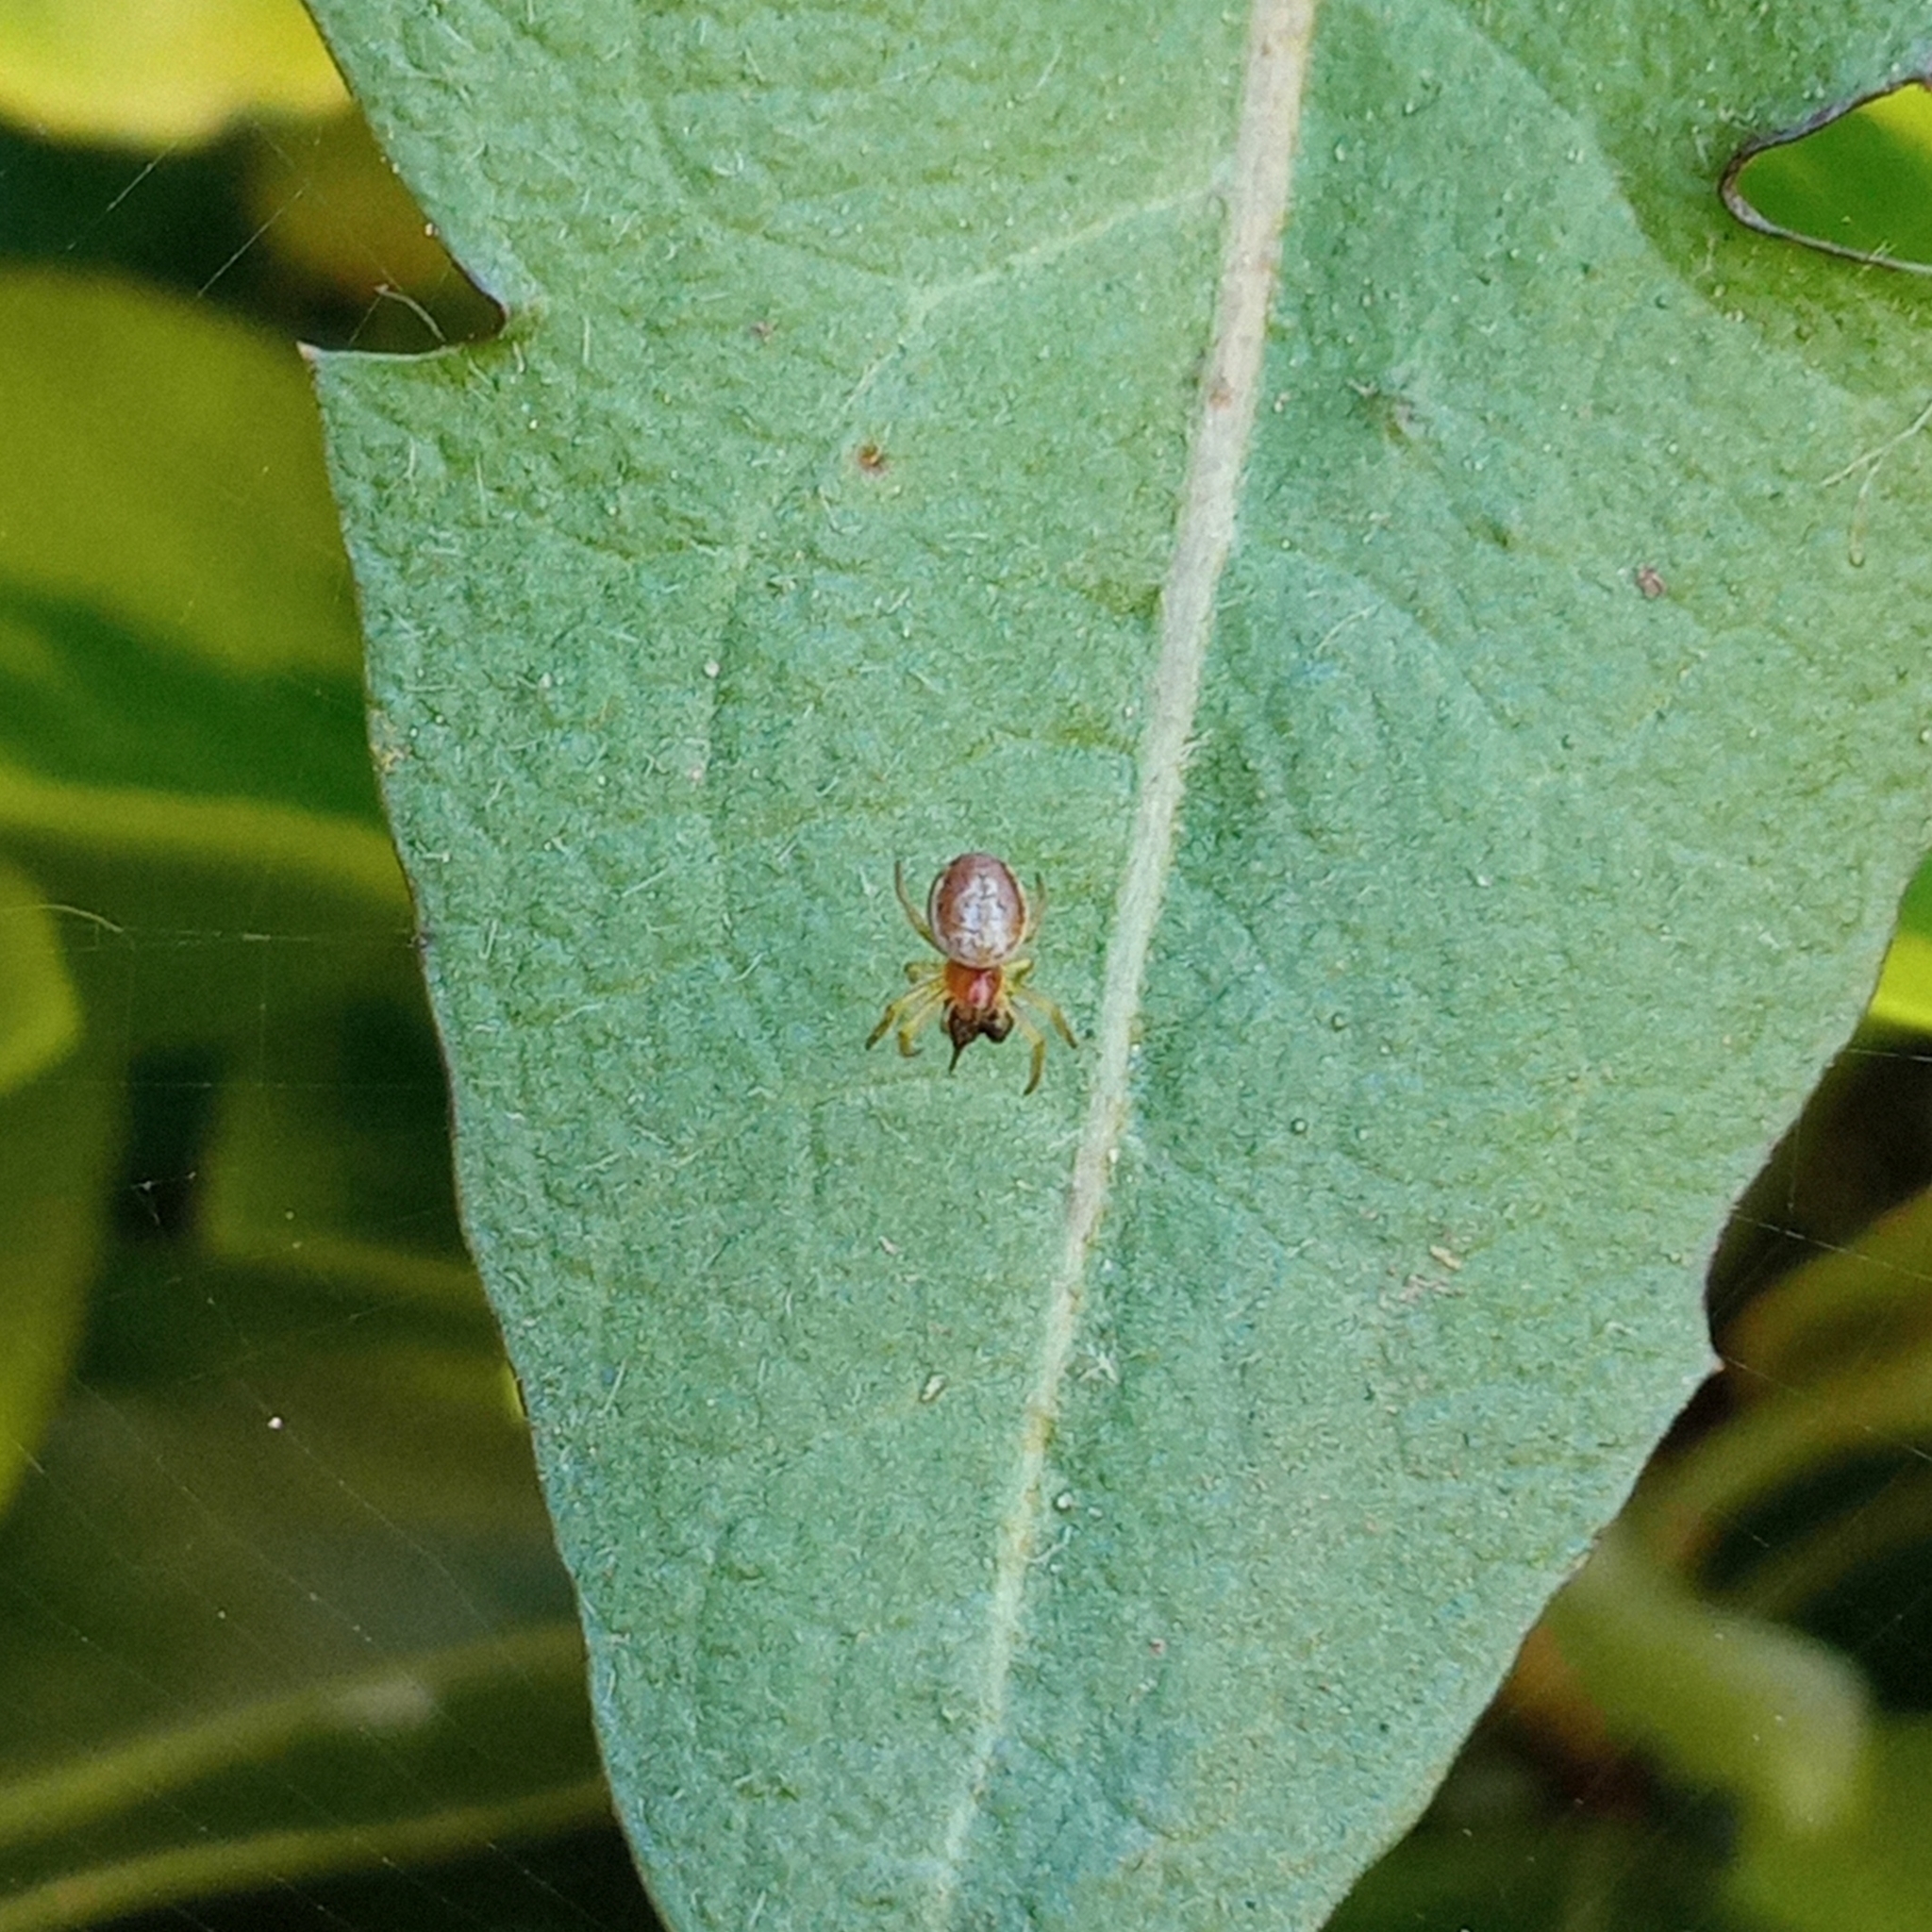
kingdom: Animalia
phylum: Arthropoda
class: Arachnida
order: Araneae
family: Araneidae
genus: Araniella
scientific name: Araniella
